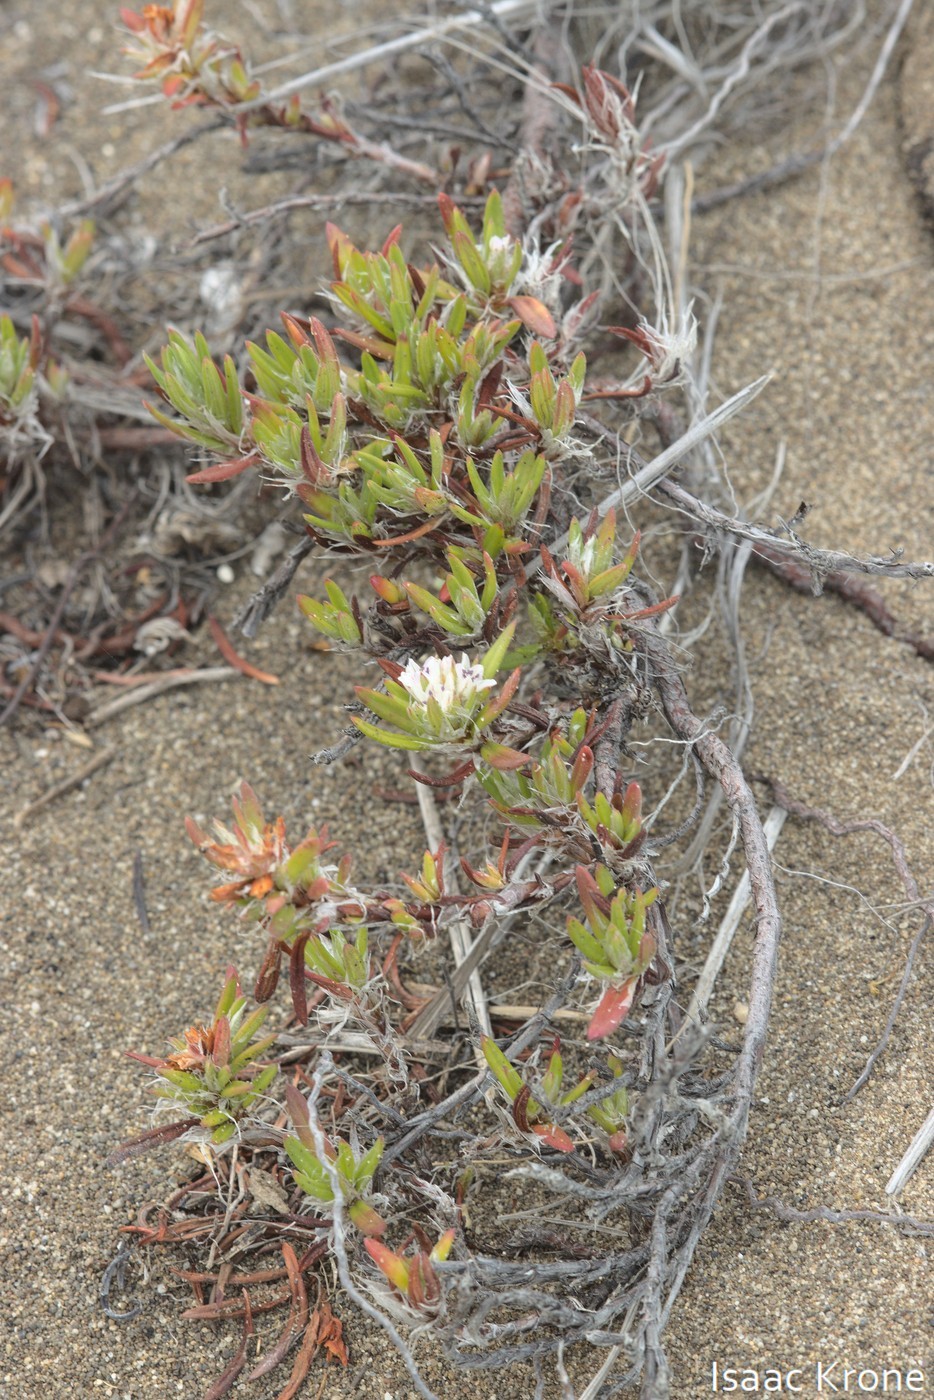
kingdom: Plantae
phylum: Tracheophyta
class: Magnoliopsida
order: Caryophyllales
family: Polygonaceae
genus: Polygonum
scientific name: Polygonum paronychia
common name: Dune knotweed
